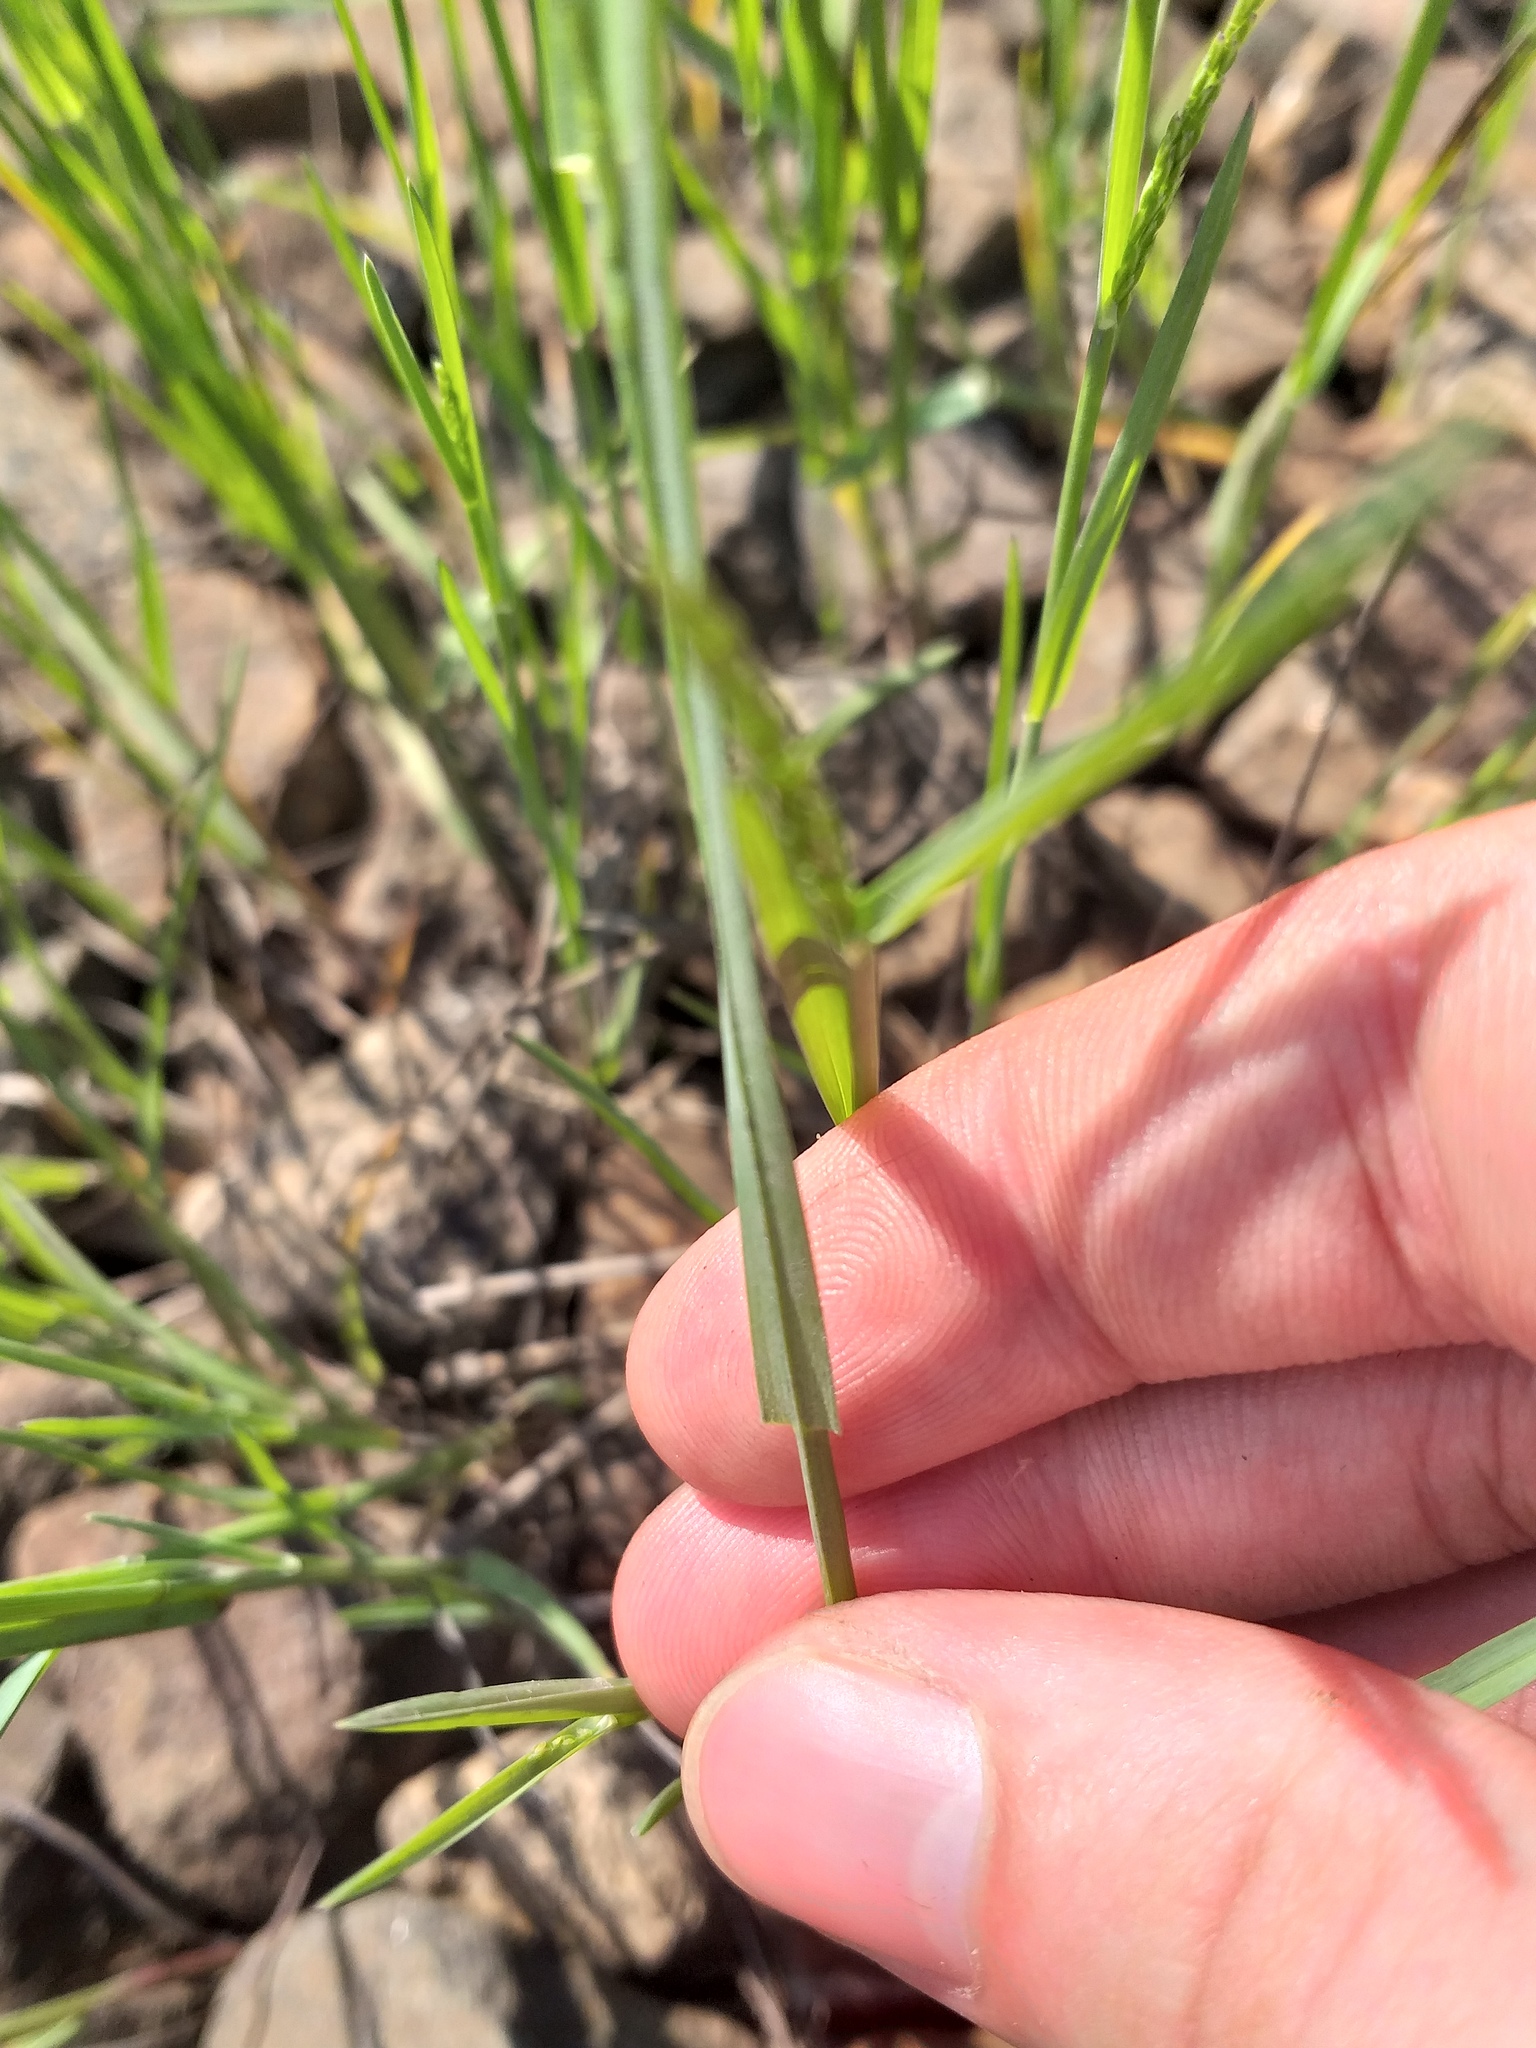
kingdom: Plantae
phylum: Tracheophyta
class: Liliopsida
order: Poales
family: Poaceae
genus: Poa
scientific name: Poa compressa
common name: Canada bluegrass
